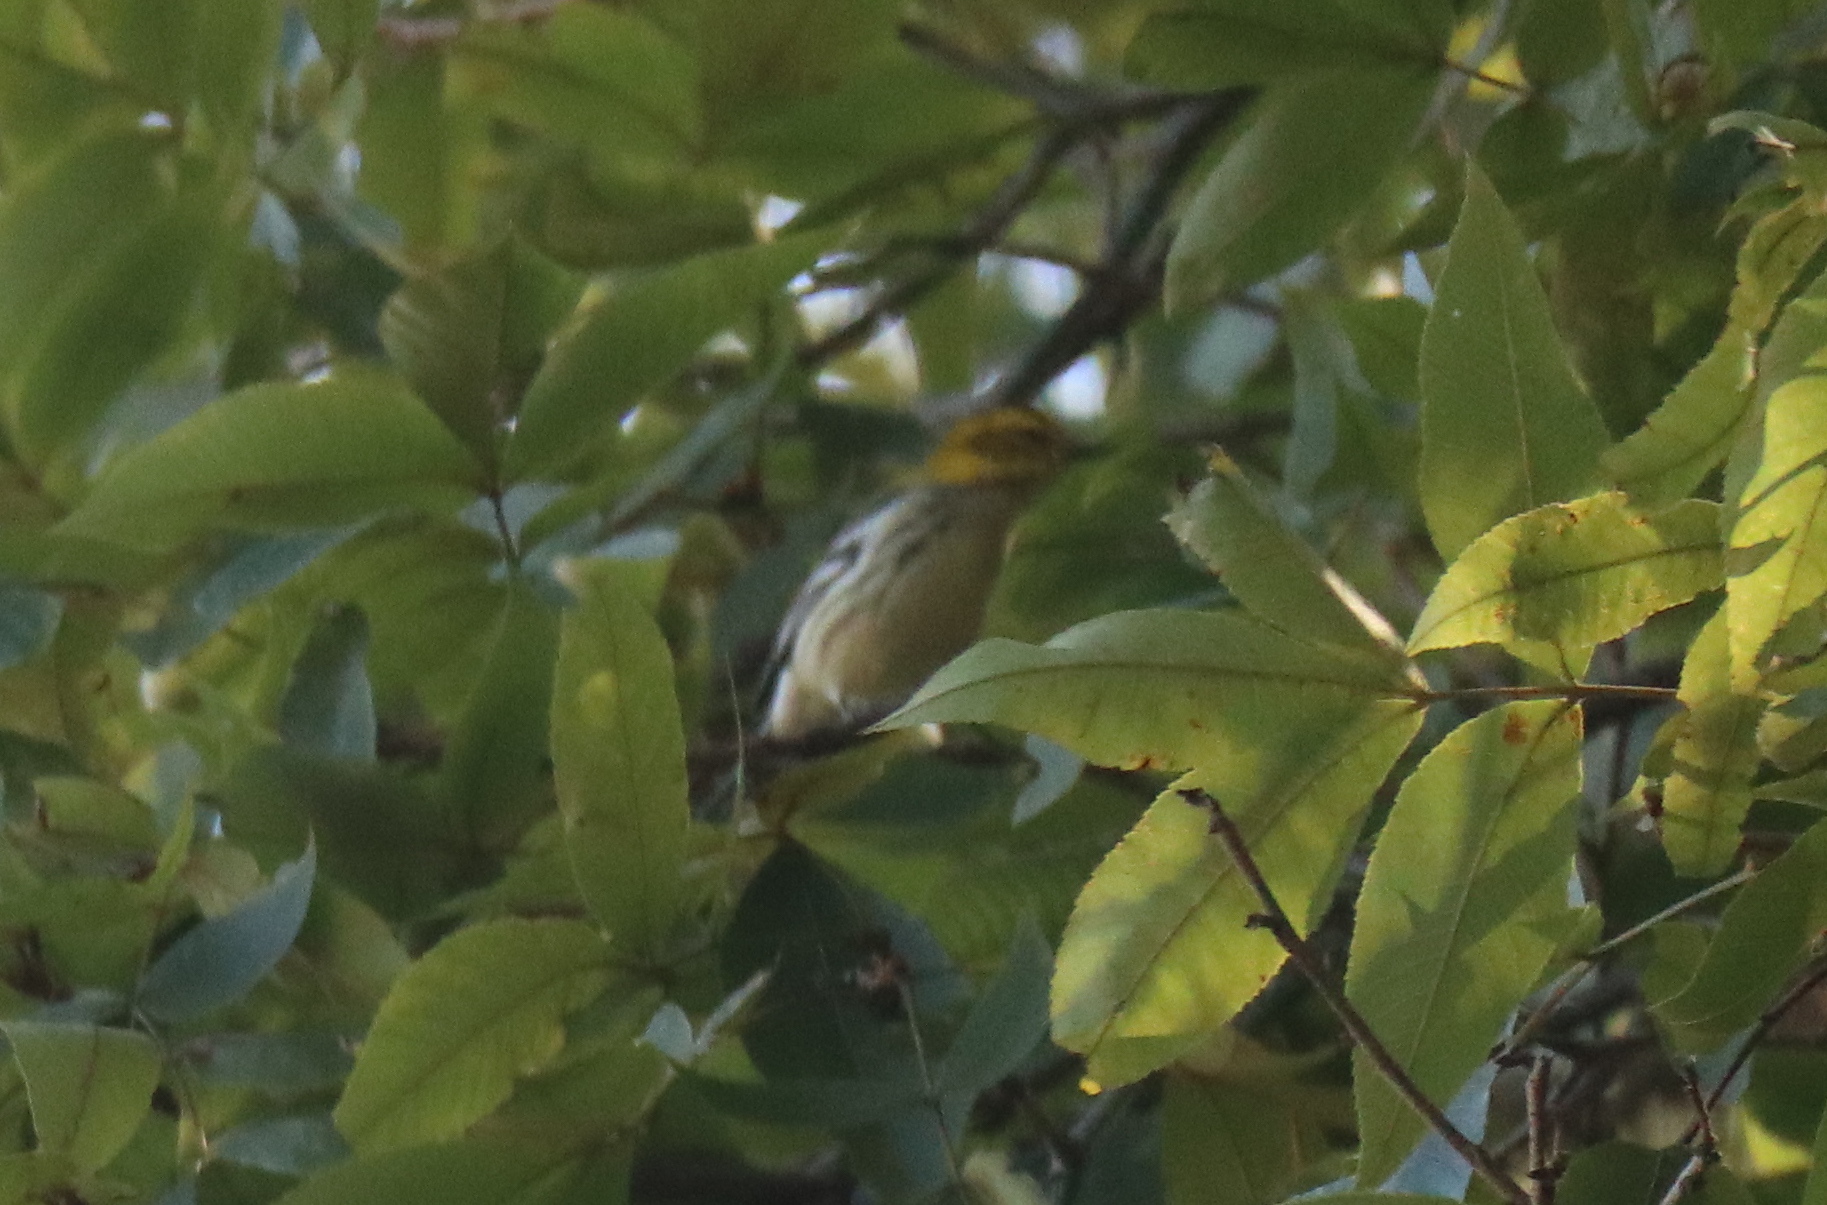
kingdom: Animalia
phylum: Chordata
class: Aves
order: Passeriformes
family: Parulidae
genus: Setophaga
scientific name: Setophaga virens
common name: Black-throated green warbler
